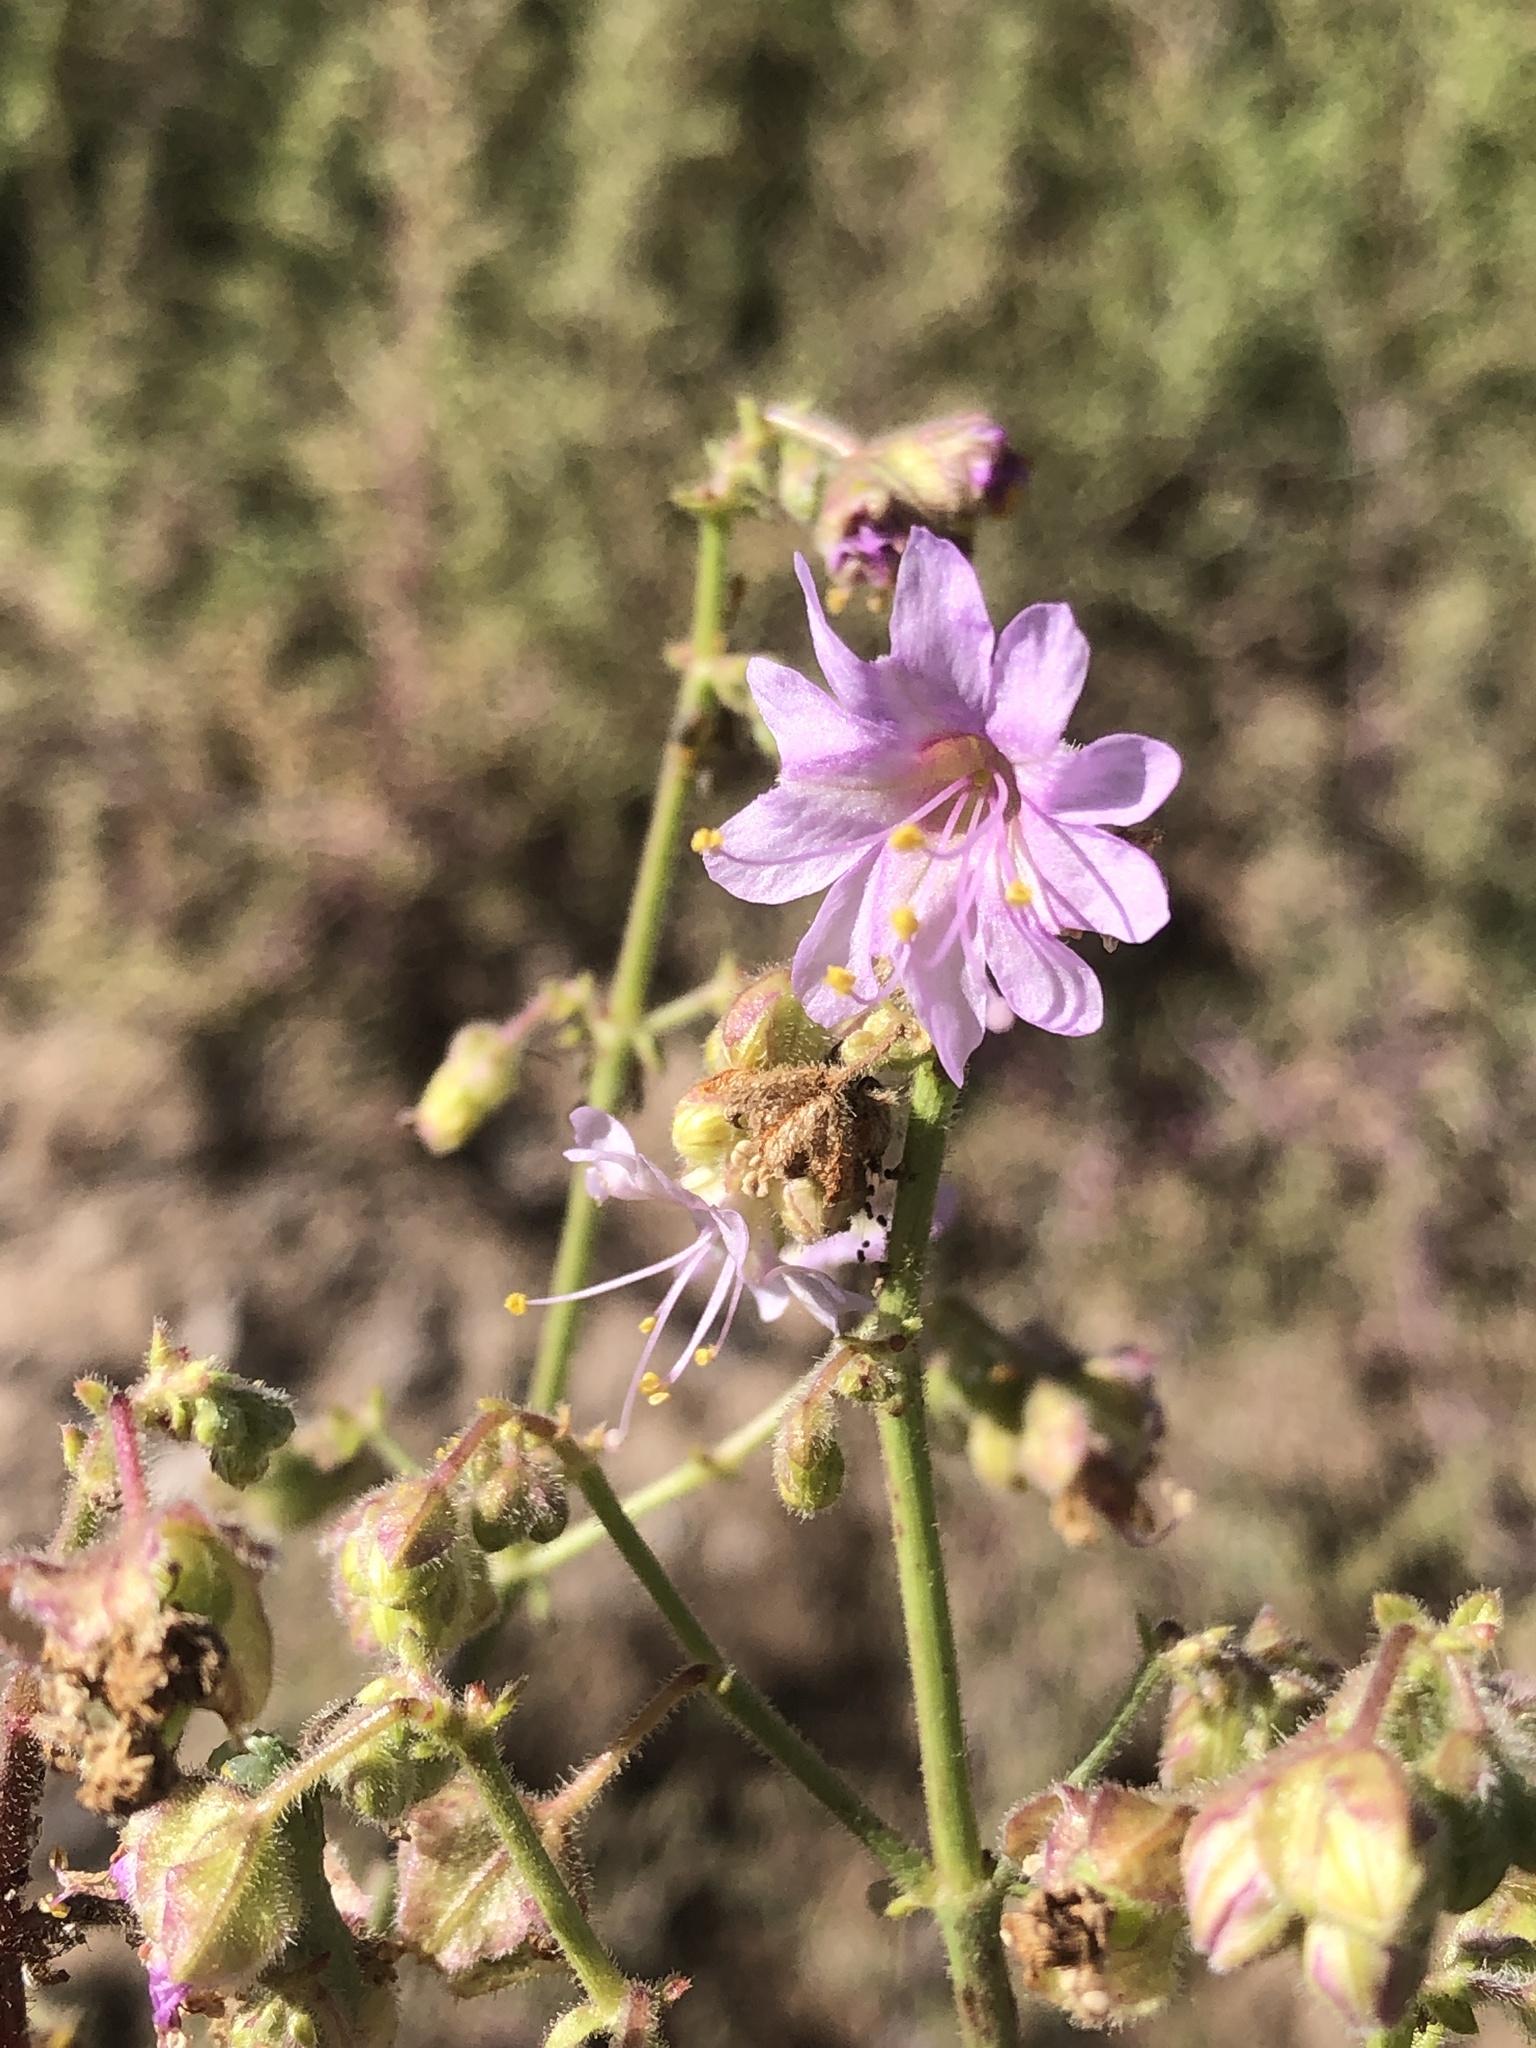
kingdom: Plantae
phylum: Tracheophyta
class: Magnoliopsida
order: Caryophyllales
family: Nyctaginaceae
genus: Mirabilis
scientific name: Mirabilis linearis
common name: Linear-leaved four-o'clock
